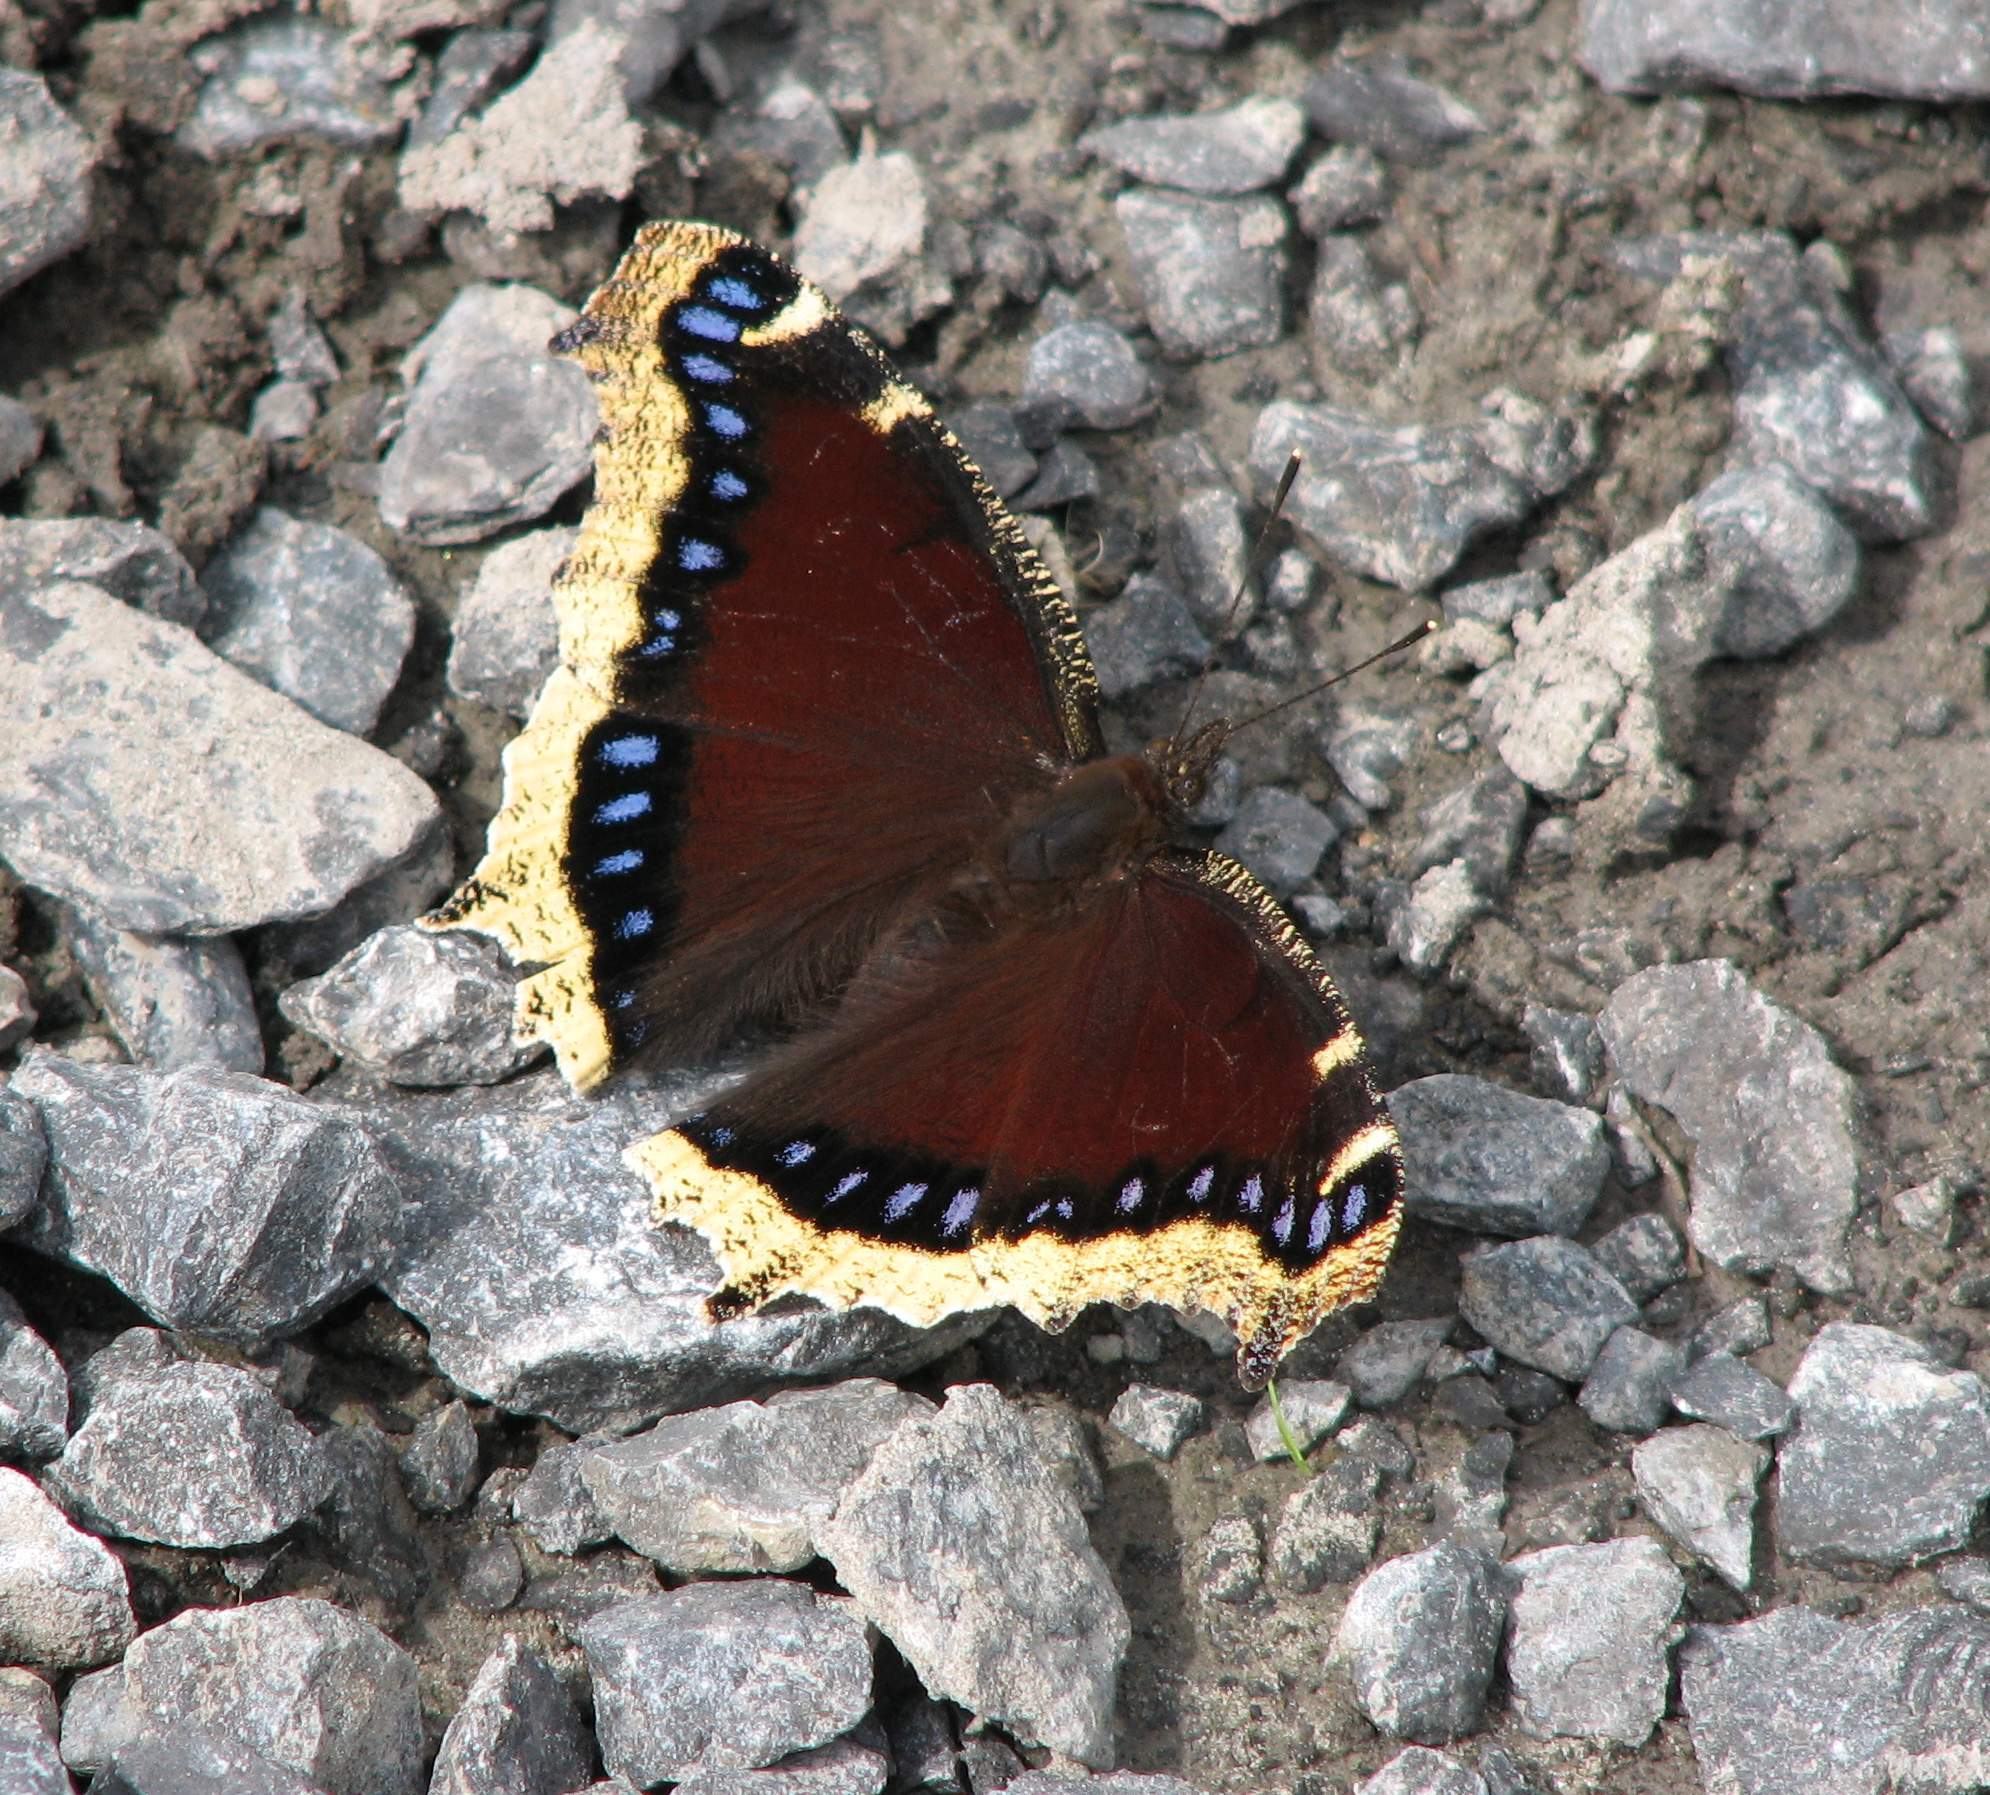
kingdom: Animalia
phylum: Arthropoda
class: Insecta
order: Lepidoptera
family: Nymphalidae
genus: Nymphalis
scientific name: Nymphalis antiopa
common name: Camberwell beauty
